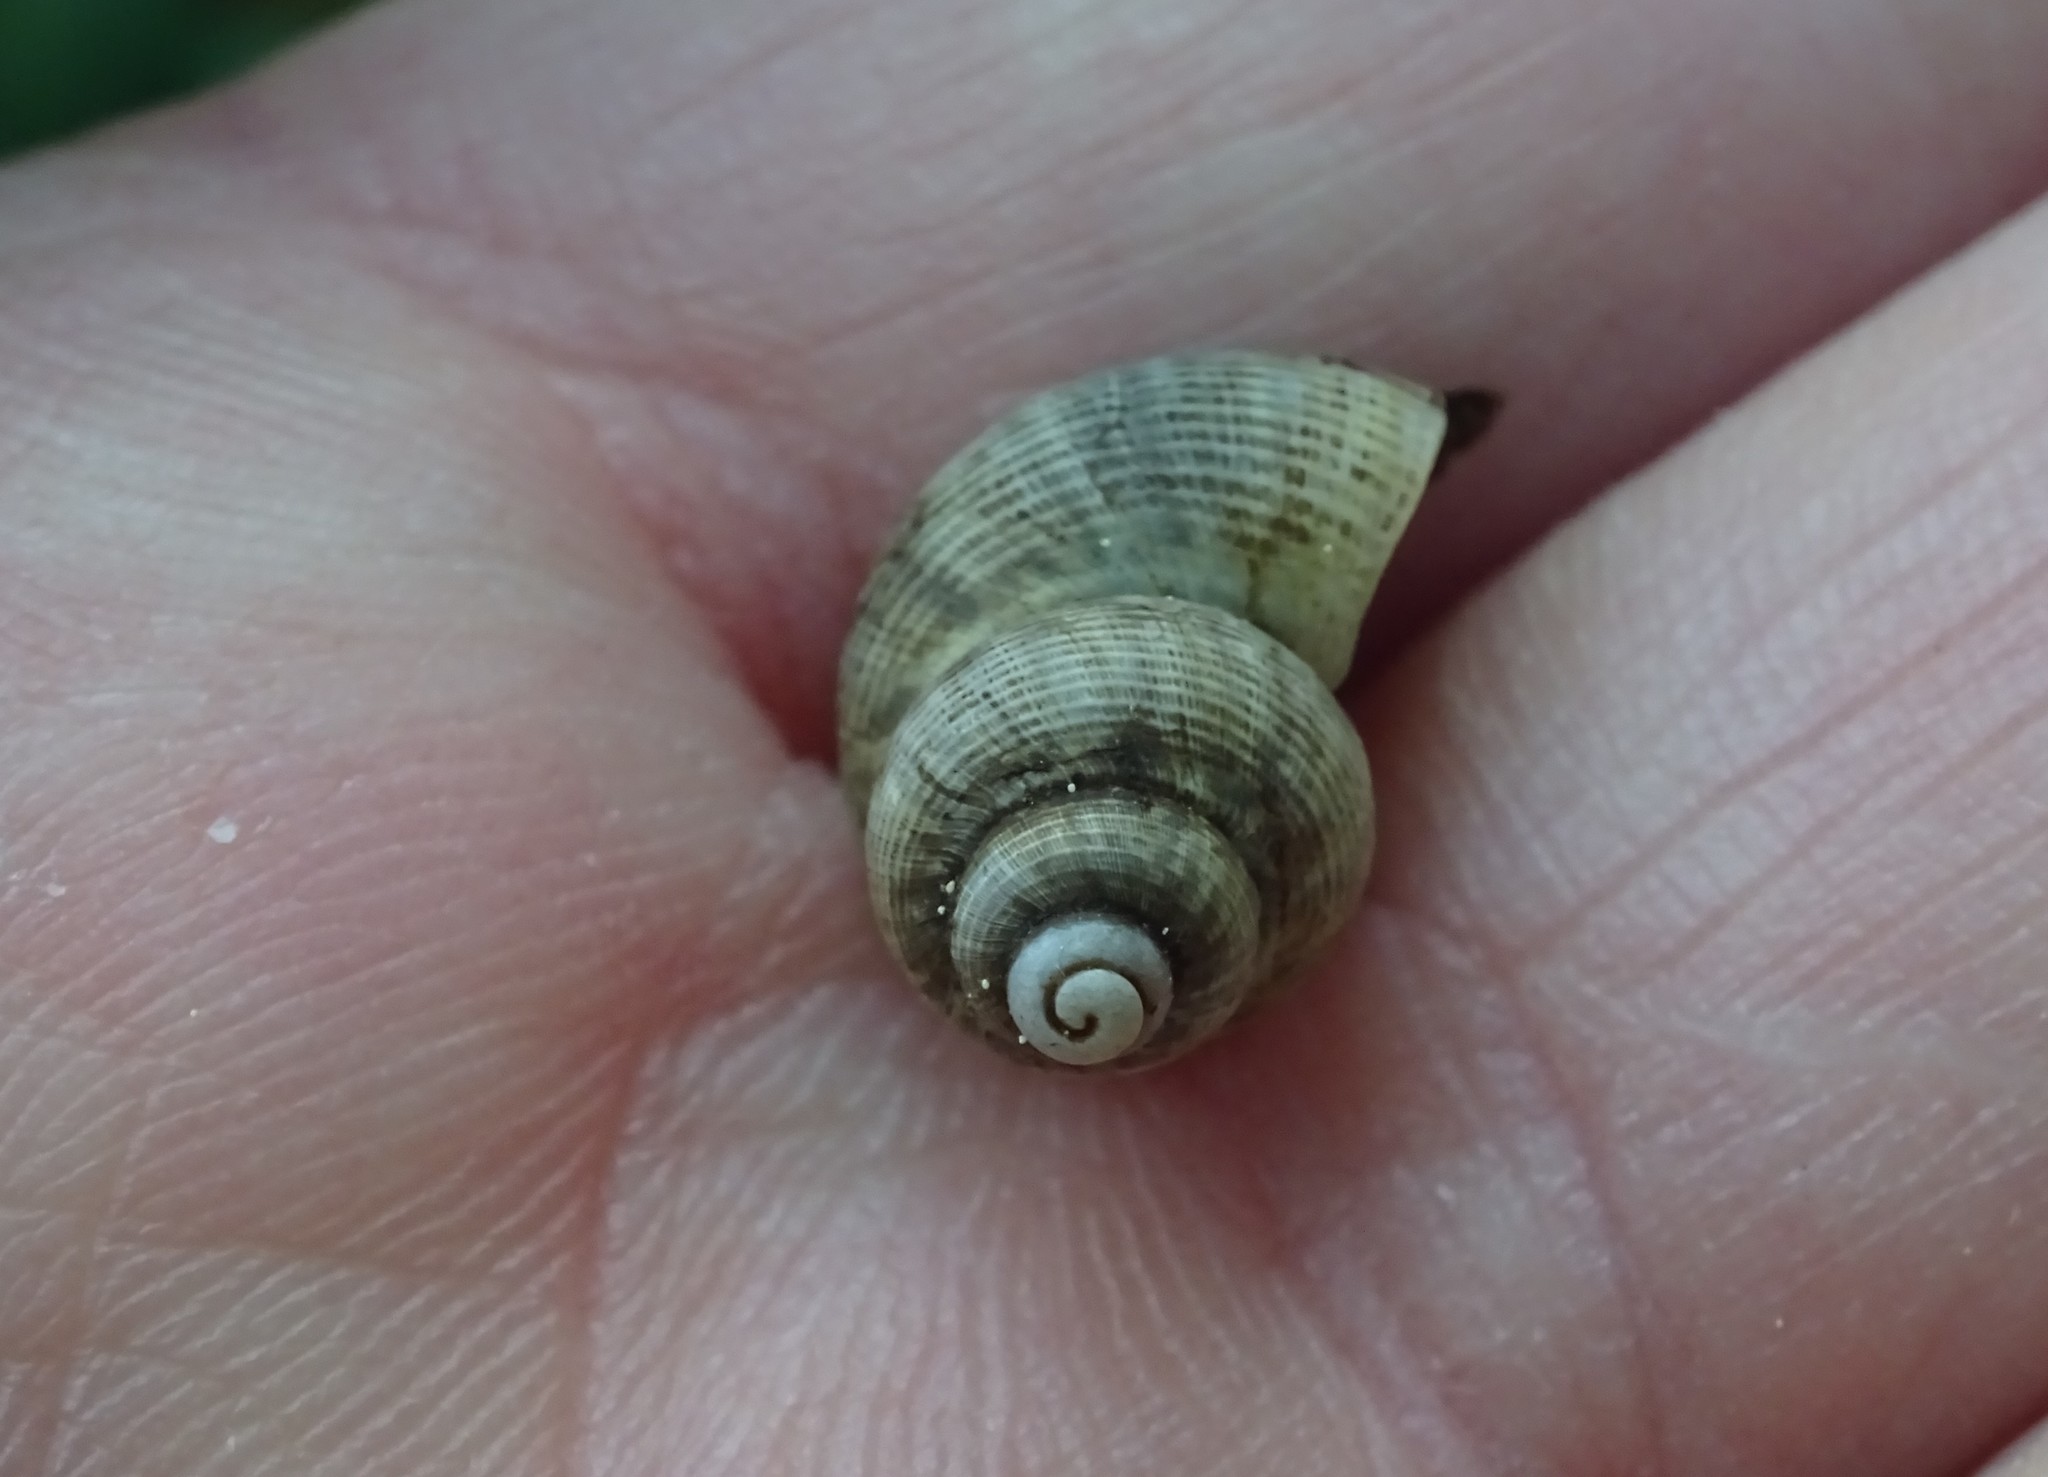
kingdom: Animalia
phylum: Mollusca
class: Gastropoda
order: Littorinimorpha
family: Pomatiidae
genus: Pomatias
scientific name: Pomatias elegans
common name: Red-mouthed snail
